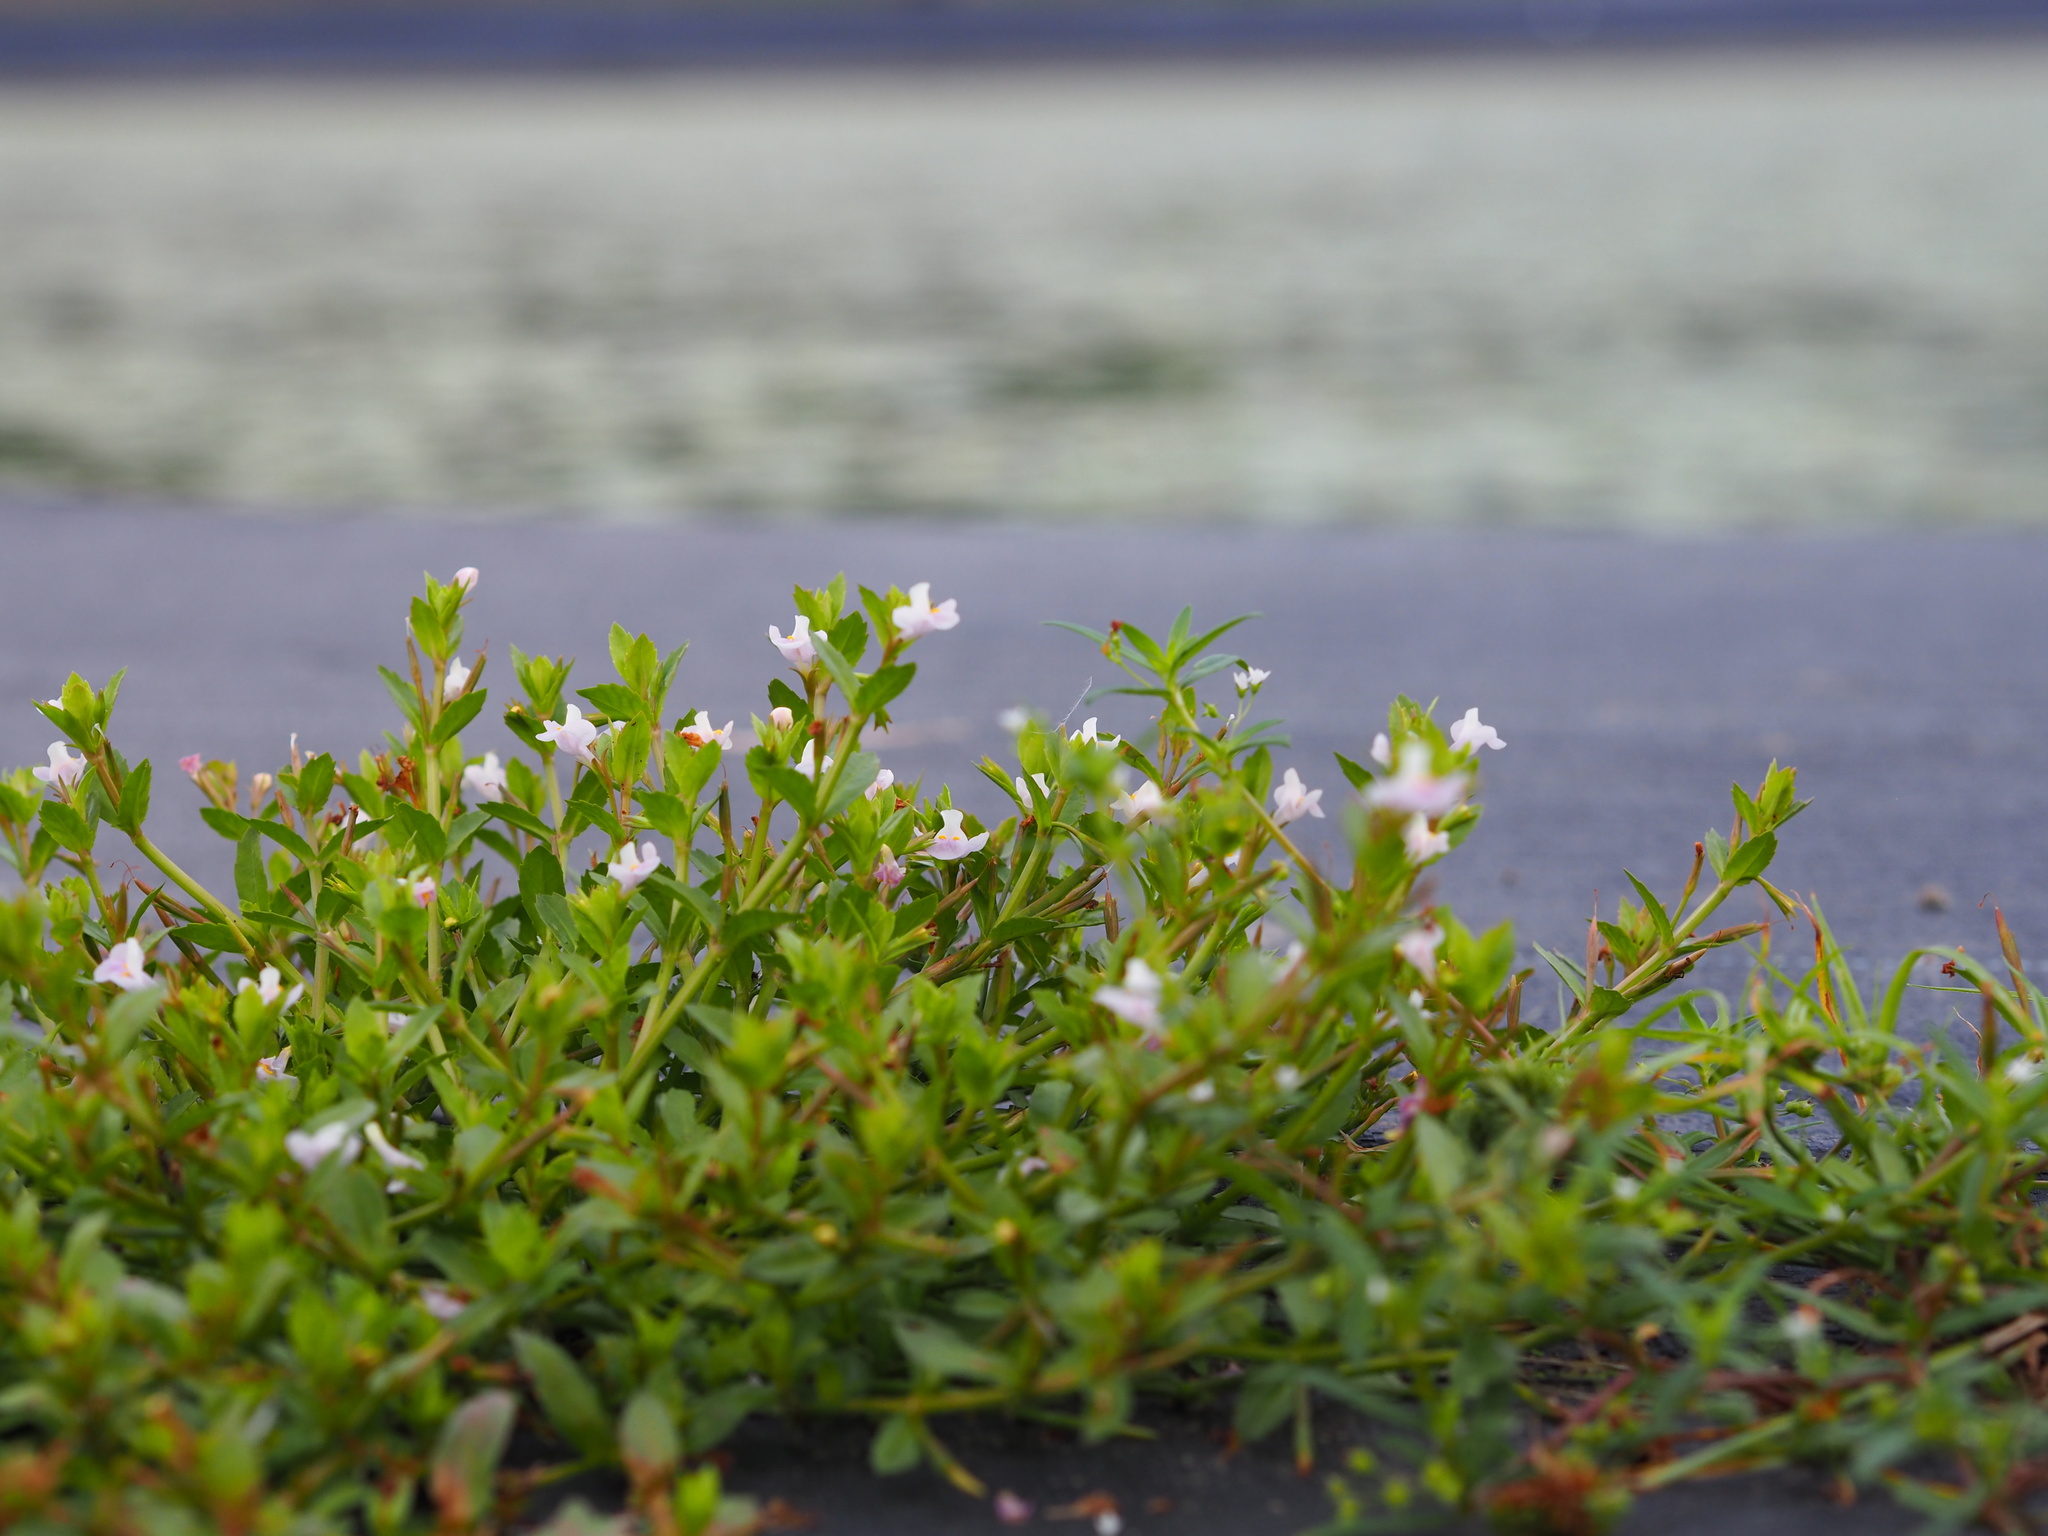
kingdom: Plantae
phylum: Tracheophyta
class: Magnoliopsida
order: Lamiales
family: Linderniaceae
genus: Bonnaya
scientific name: Bonnaya antipoda
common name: Sparrow false pimpernel
